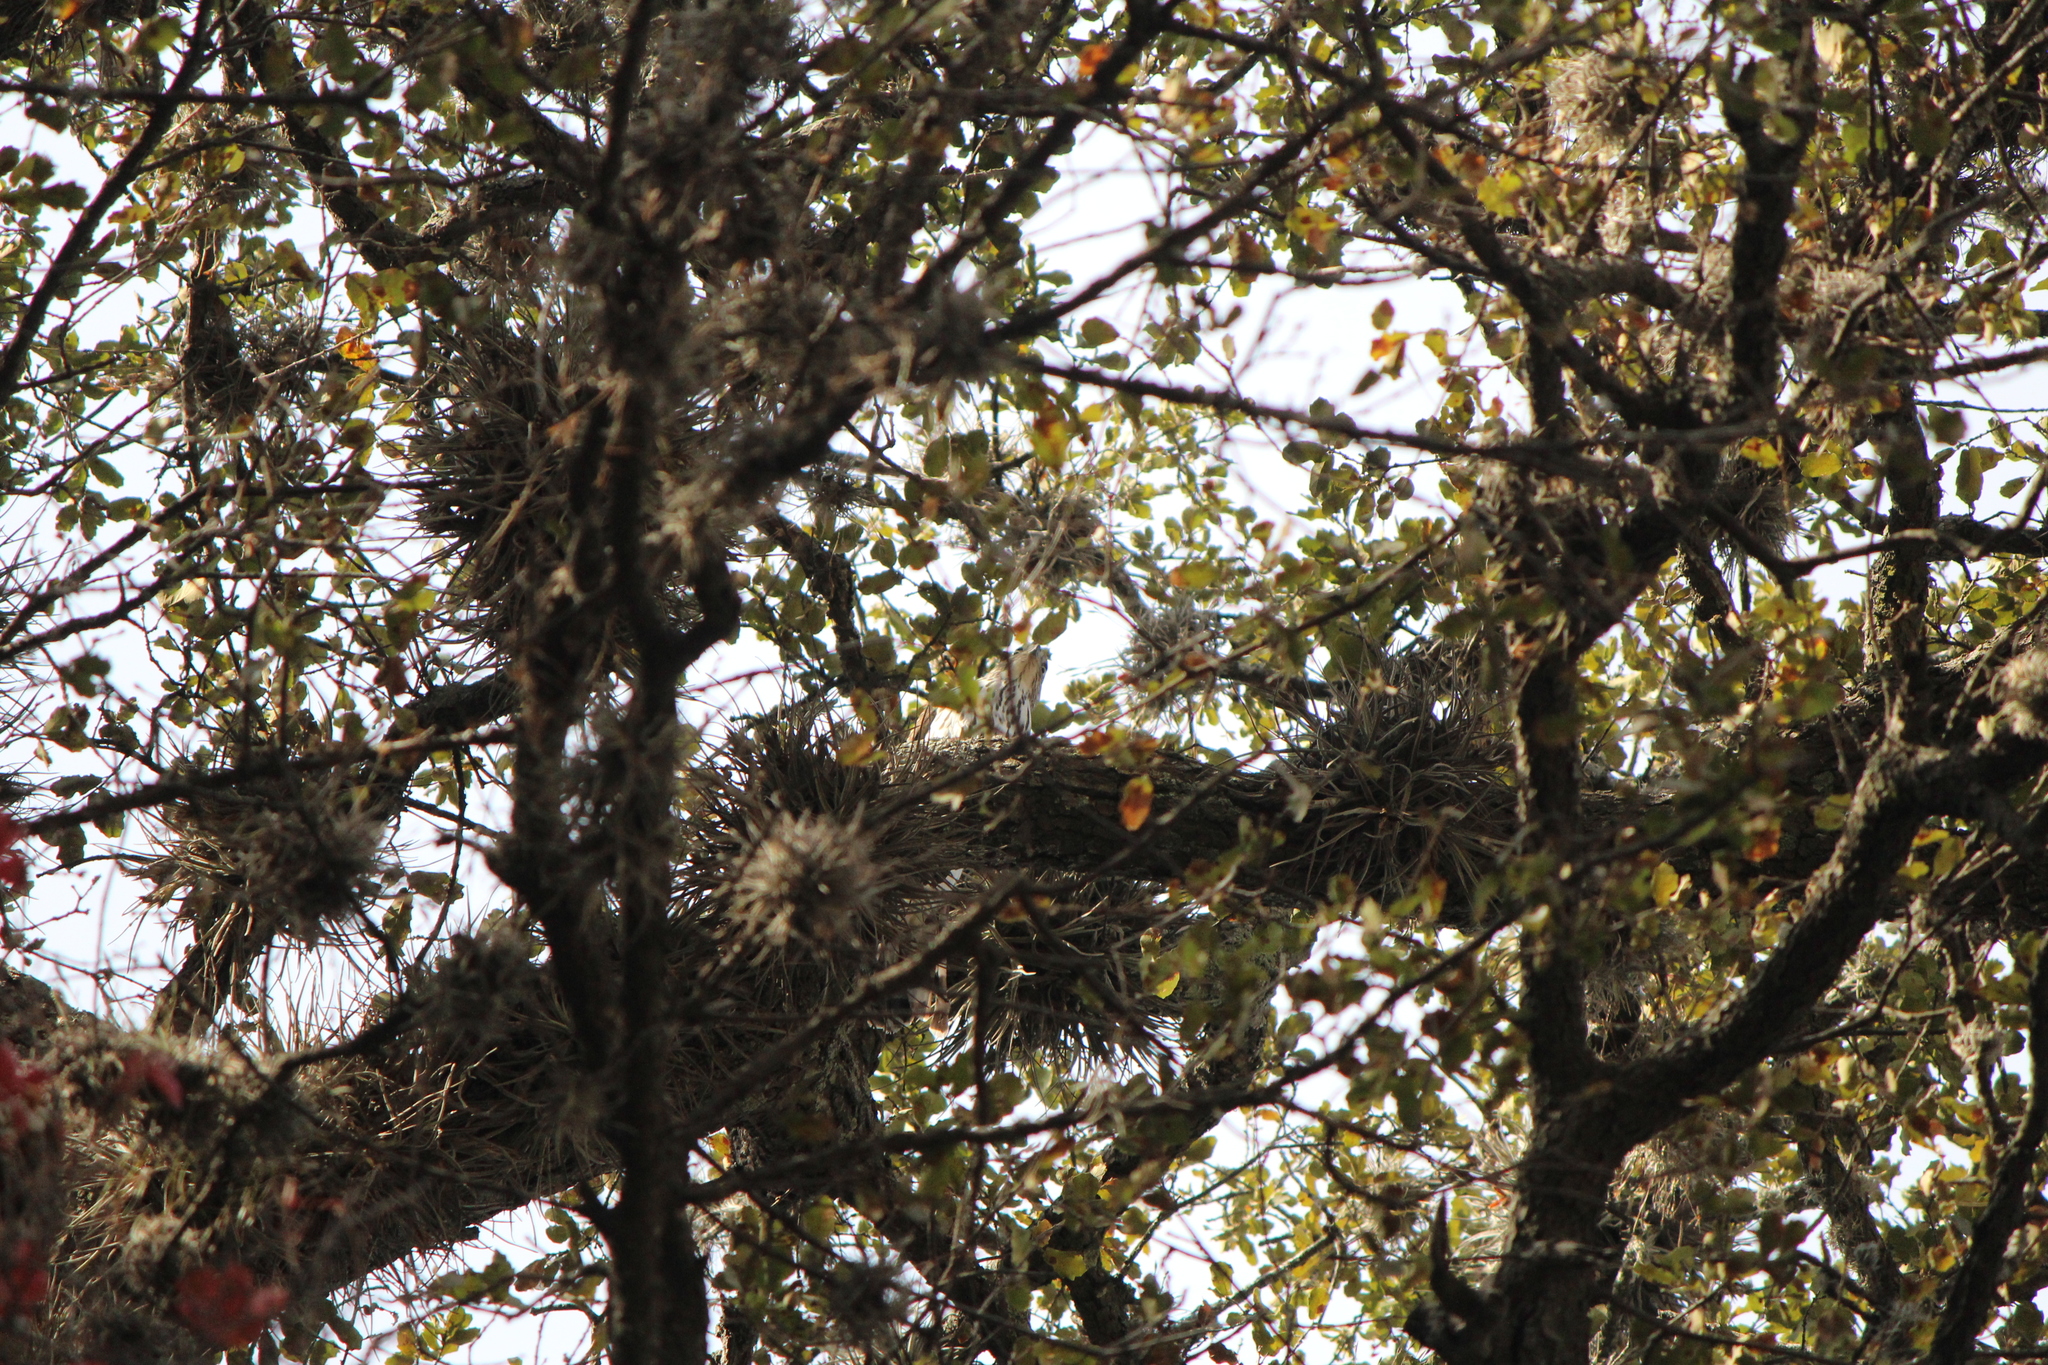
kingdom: Animalia
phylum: Chordata
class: Aves
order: Accipitriformes
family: Accipitridae
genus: Accipiter
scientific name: Accipiter cooperii
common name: Cooper's hawk
